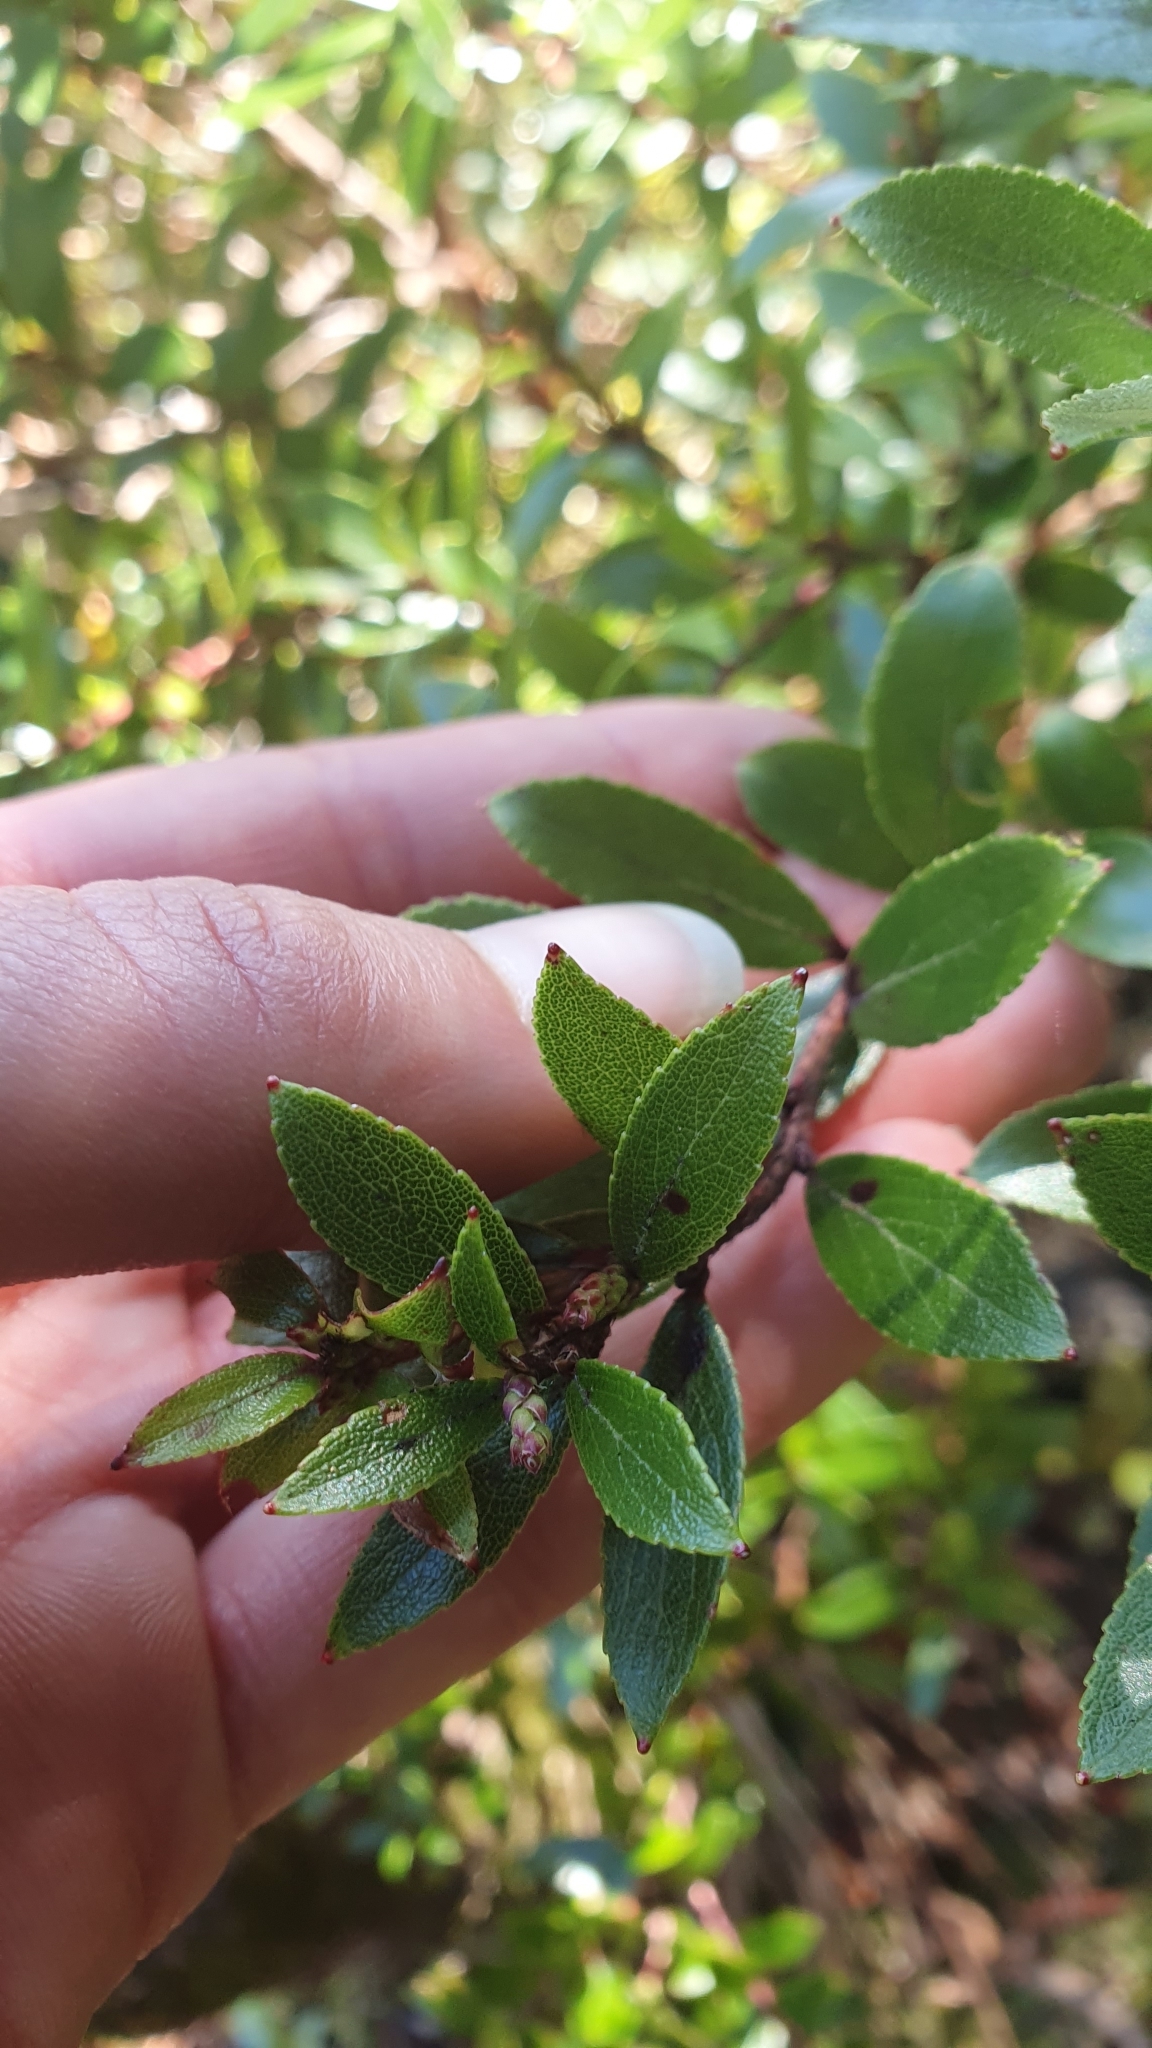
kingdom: Plantae
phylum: Tracheophyta
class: Magnoliopsida
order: Ericales
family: Ericaceae
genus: Gaultheria
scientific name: Gaultheria rupestris
